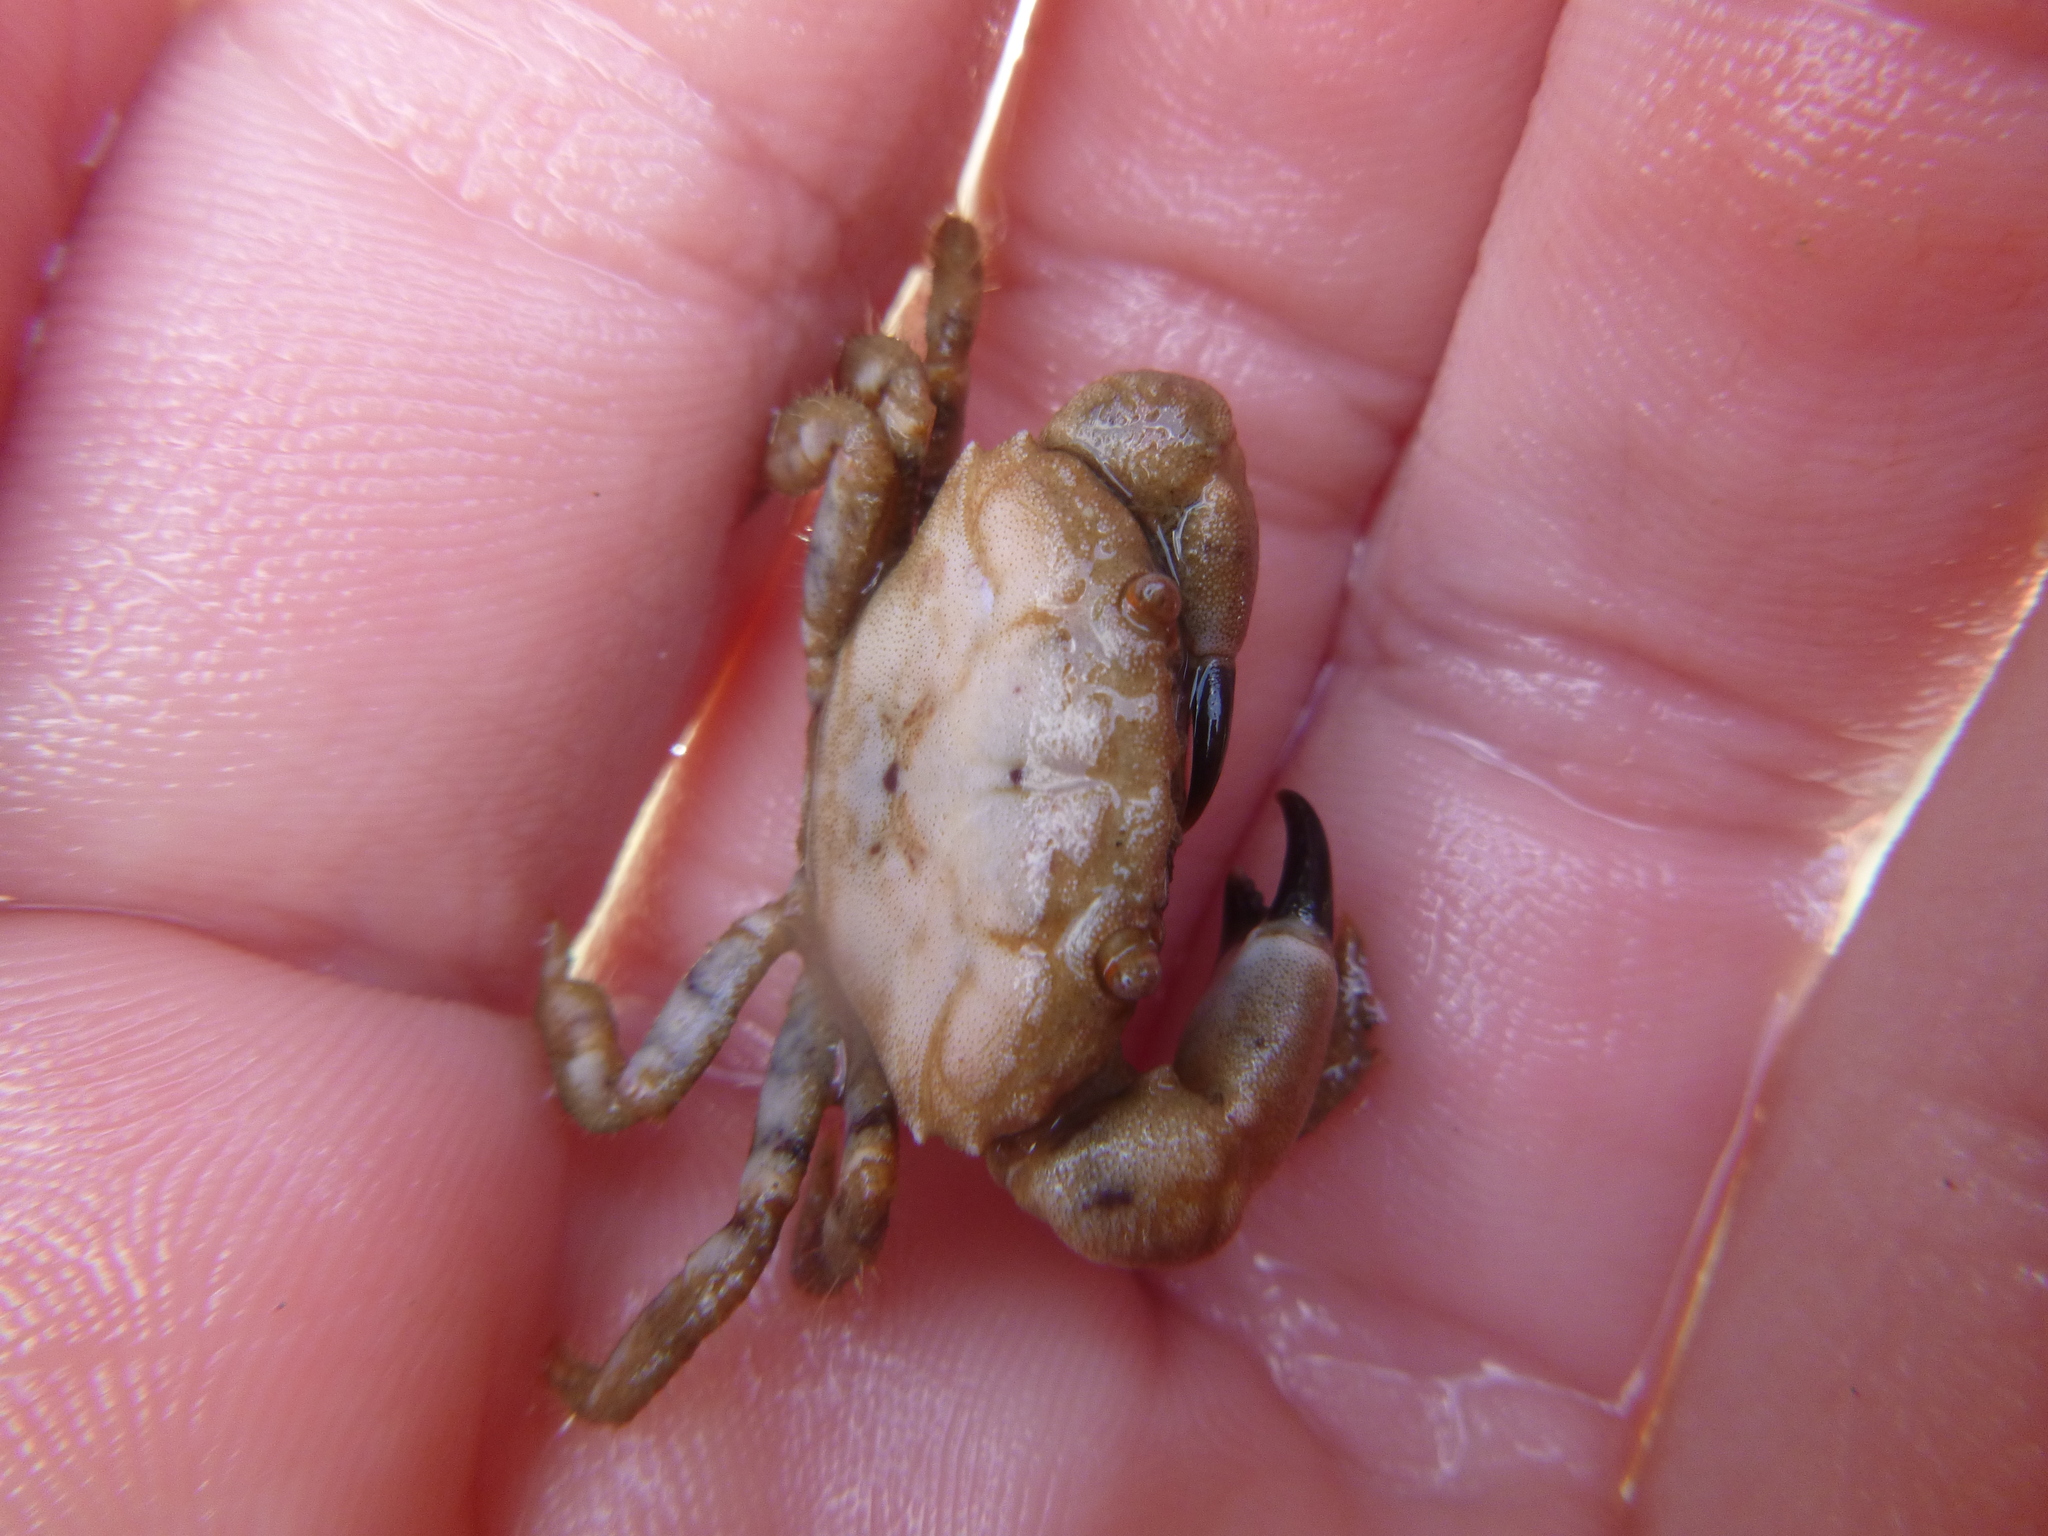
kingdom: Animalia
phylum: Arthropoda
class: Malacostraca
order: Decapoda
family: Oziidae
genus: Ozius
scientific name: Ozius deplanatus
